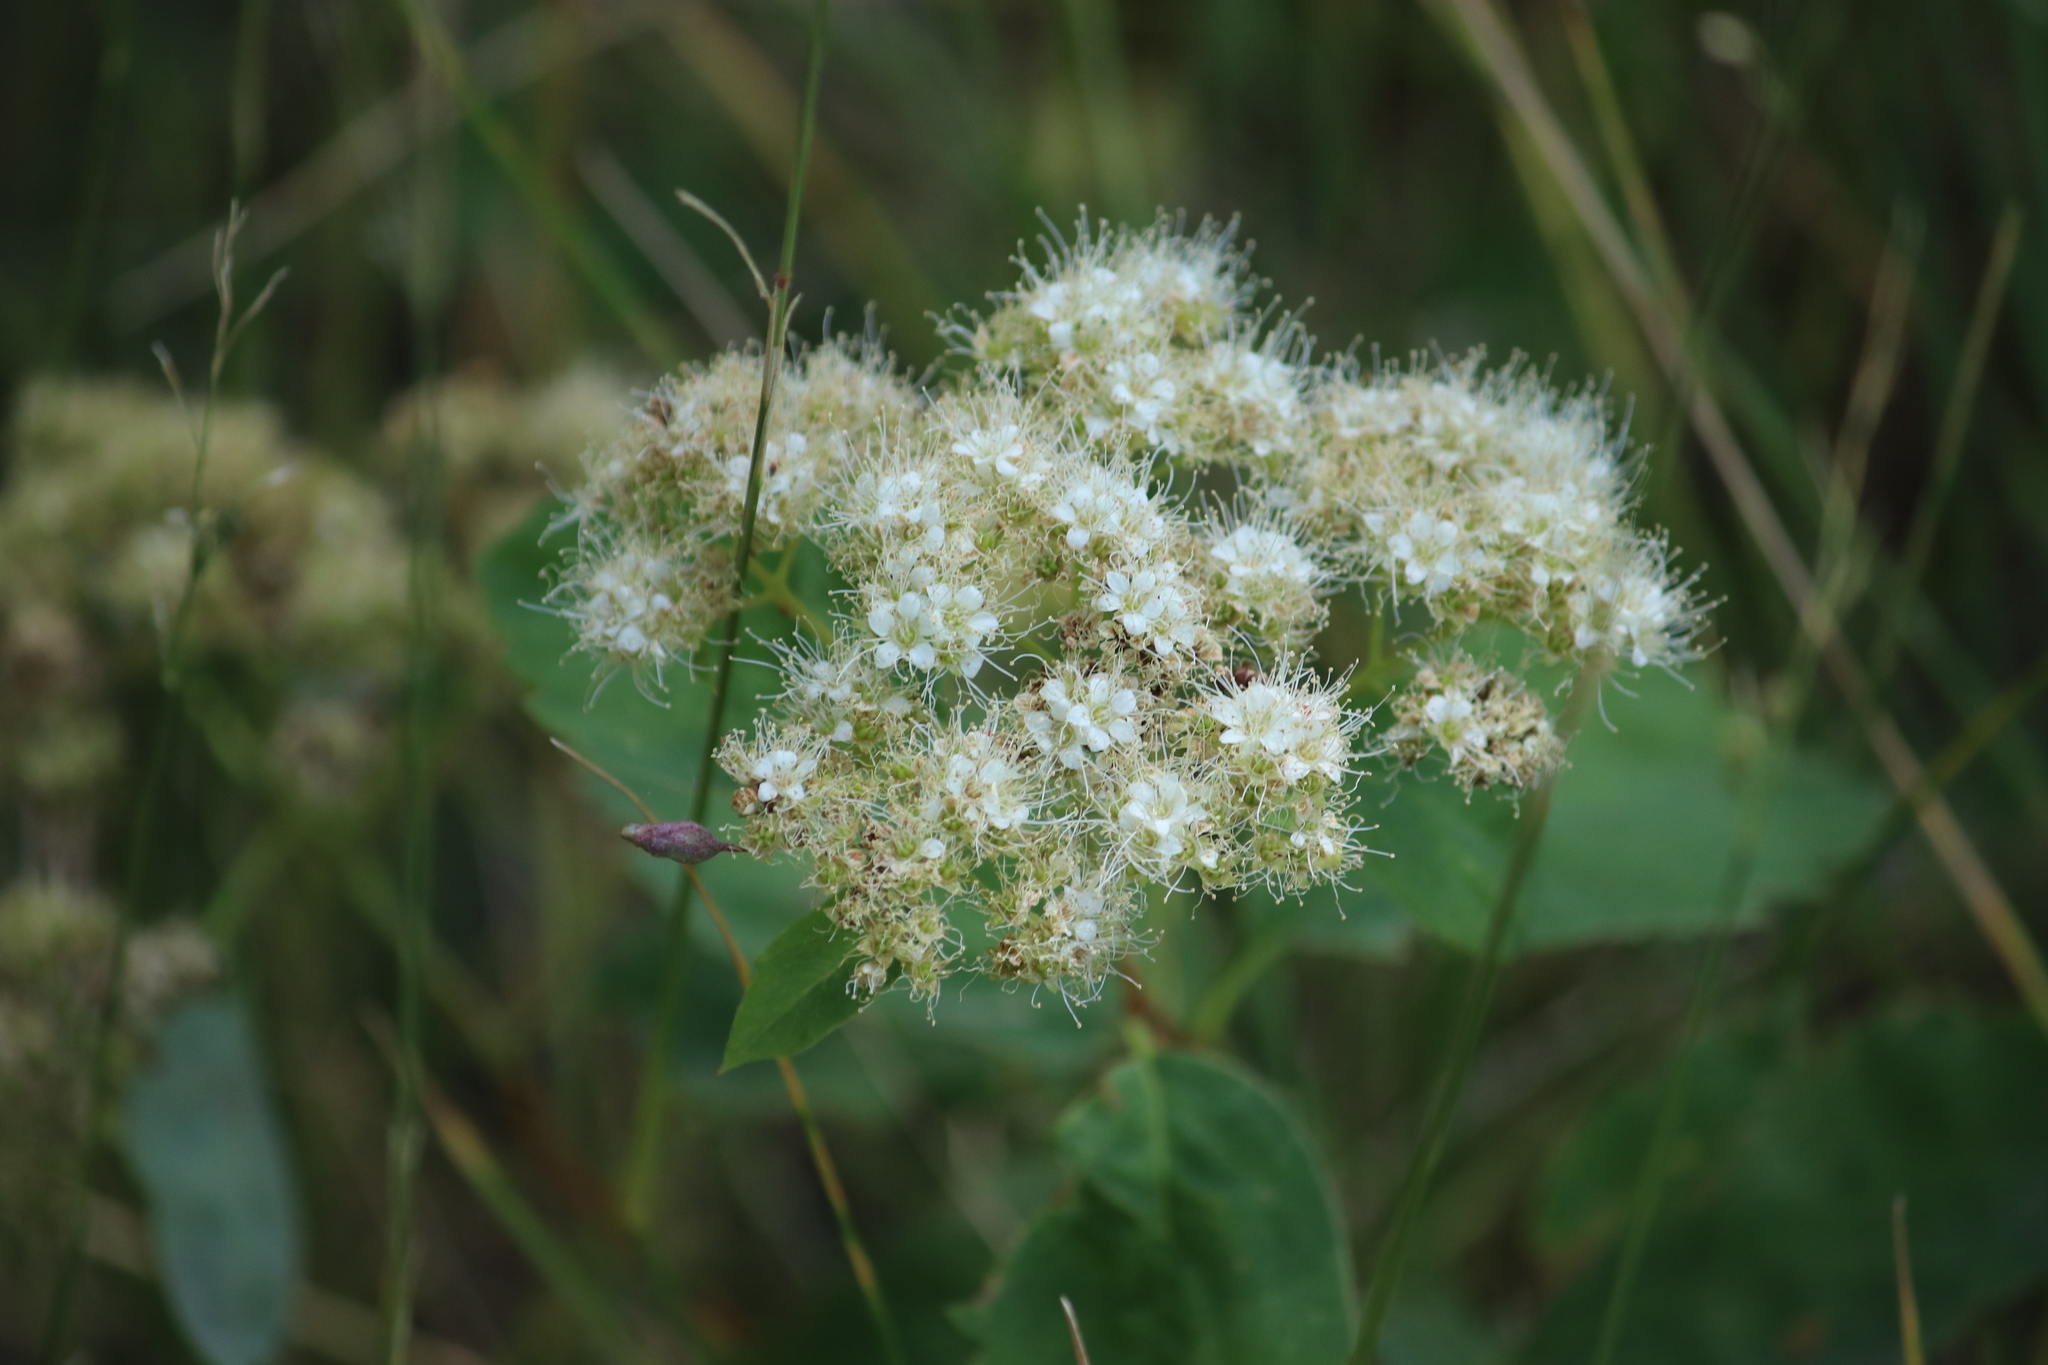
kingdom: Plantae
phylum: Tracheophyta
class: Magnoliopsida
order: Rosales
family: Rosaceae
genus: Spiraea
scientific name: Spiraea lucida
